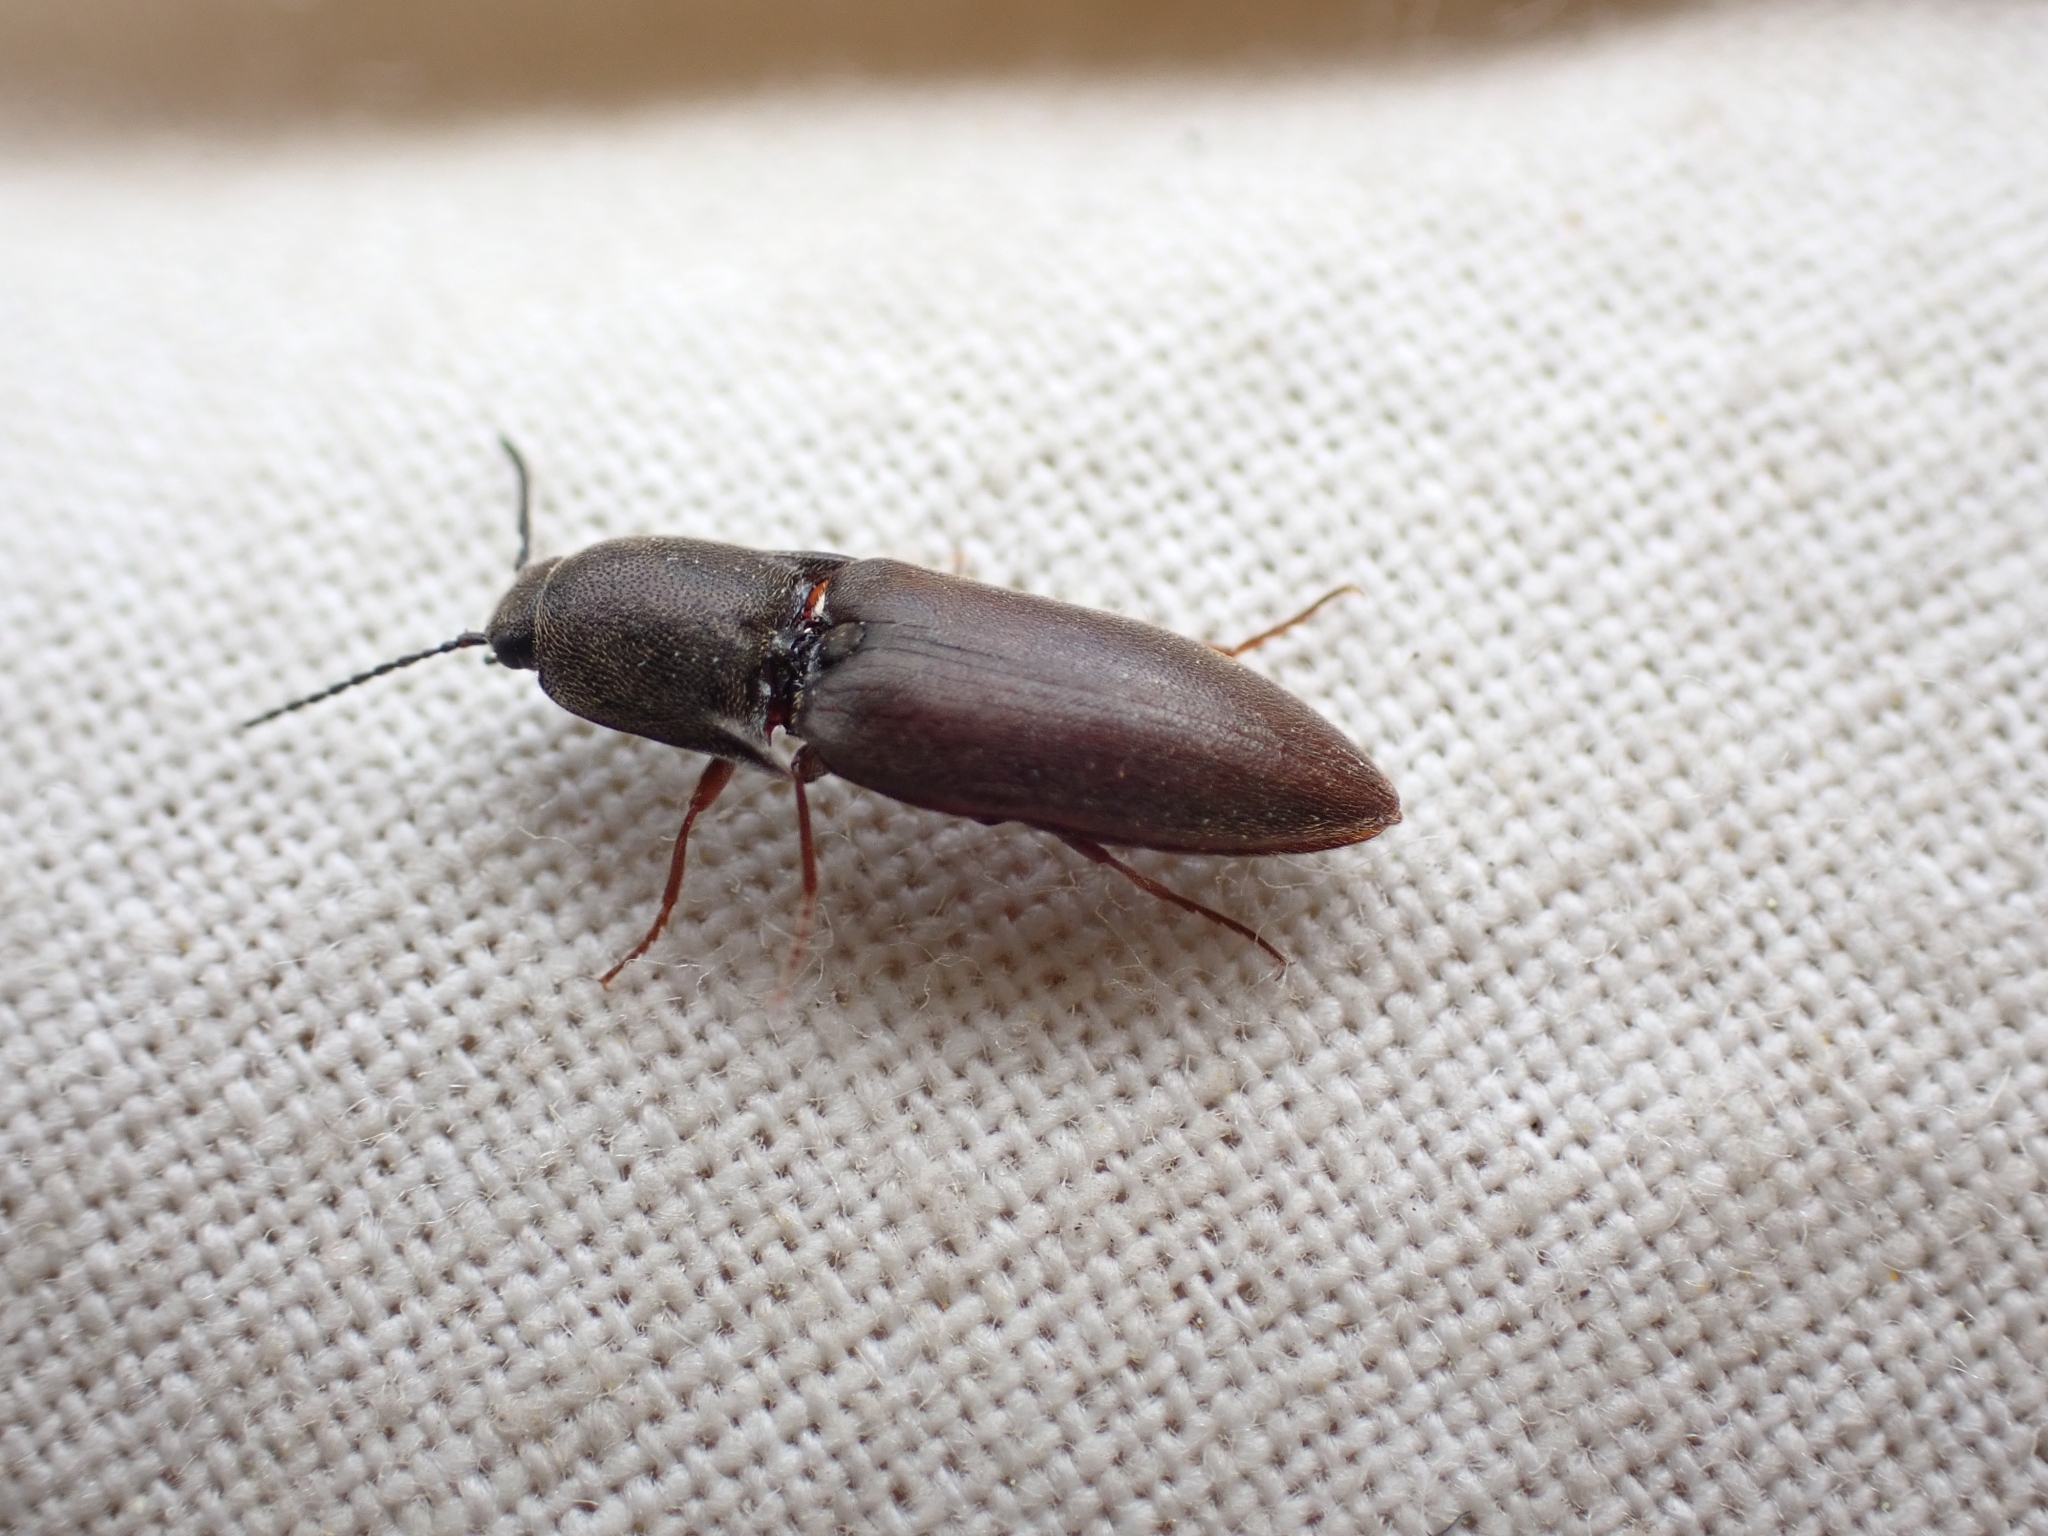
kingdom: Animalia
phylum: Arthropoda
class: Insecta
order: Coleoptera
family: Elateridae
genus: Sericus
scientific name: Sericus incongruus
